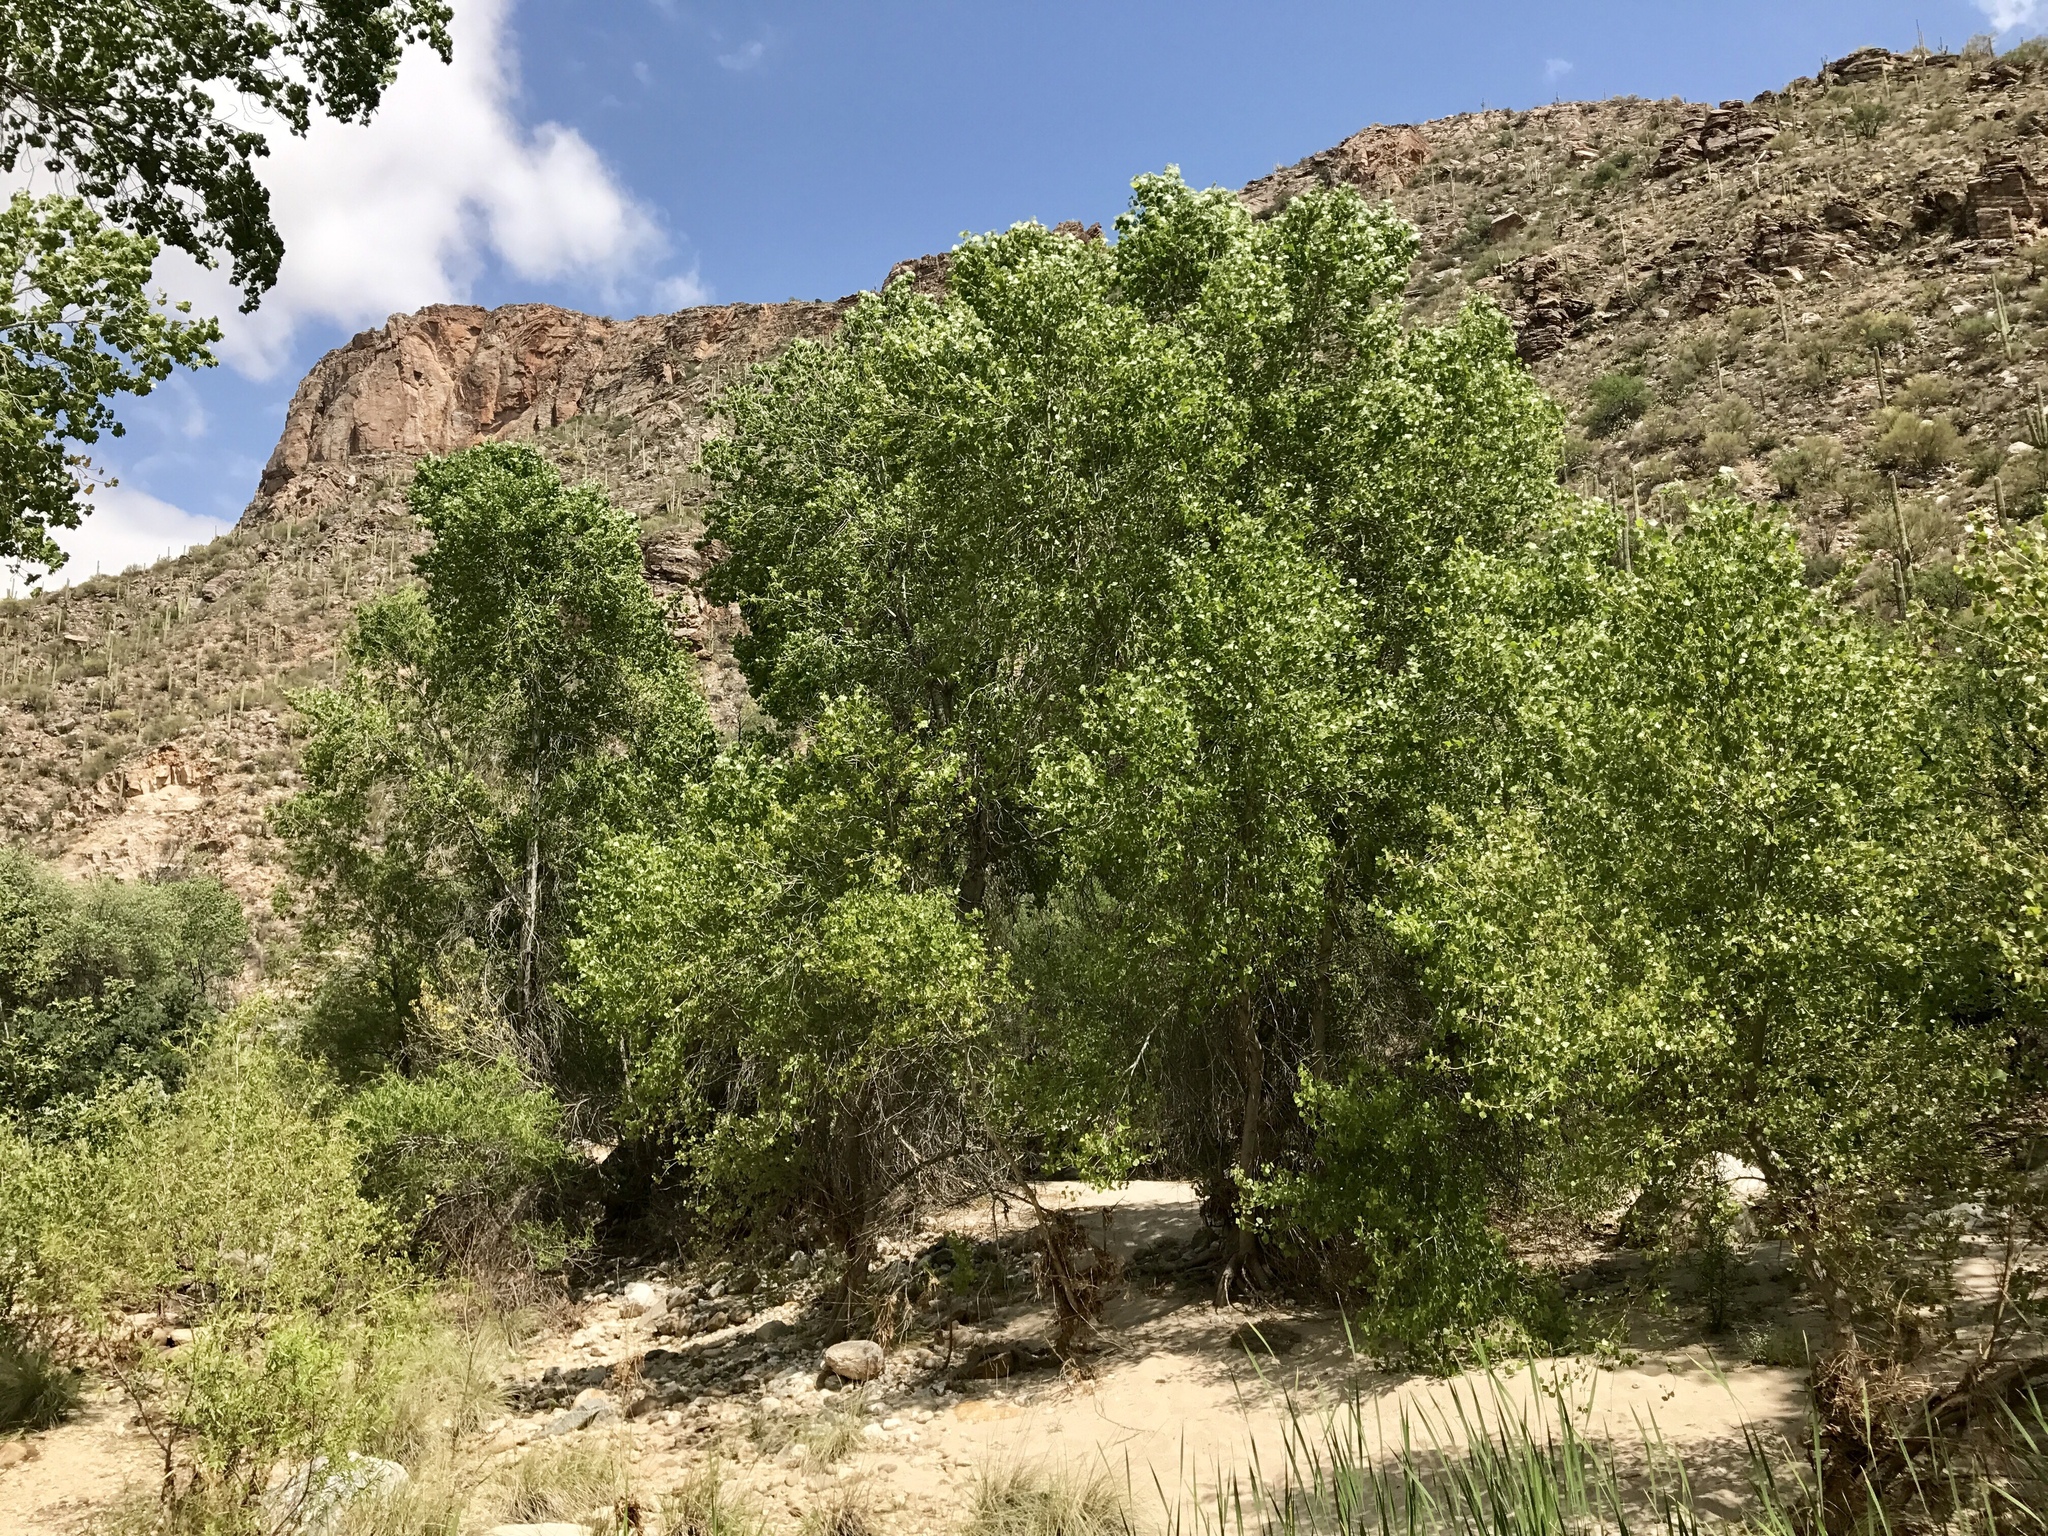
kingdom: Plantae
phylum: Tracheophyta
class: Magnoliopsida
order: Malpighiales
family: Salicaceae
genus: Populus
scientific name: Populus fremontii
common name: Fremont's cottonwood
